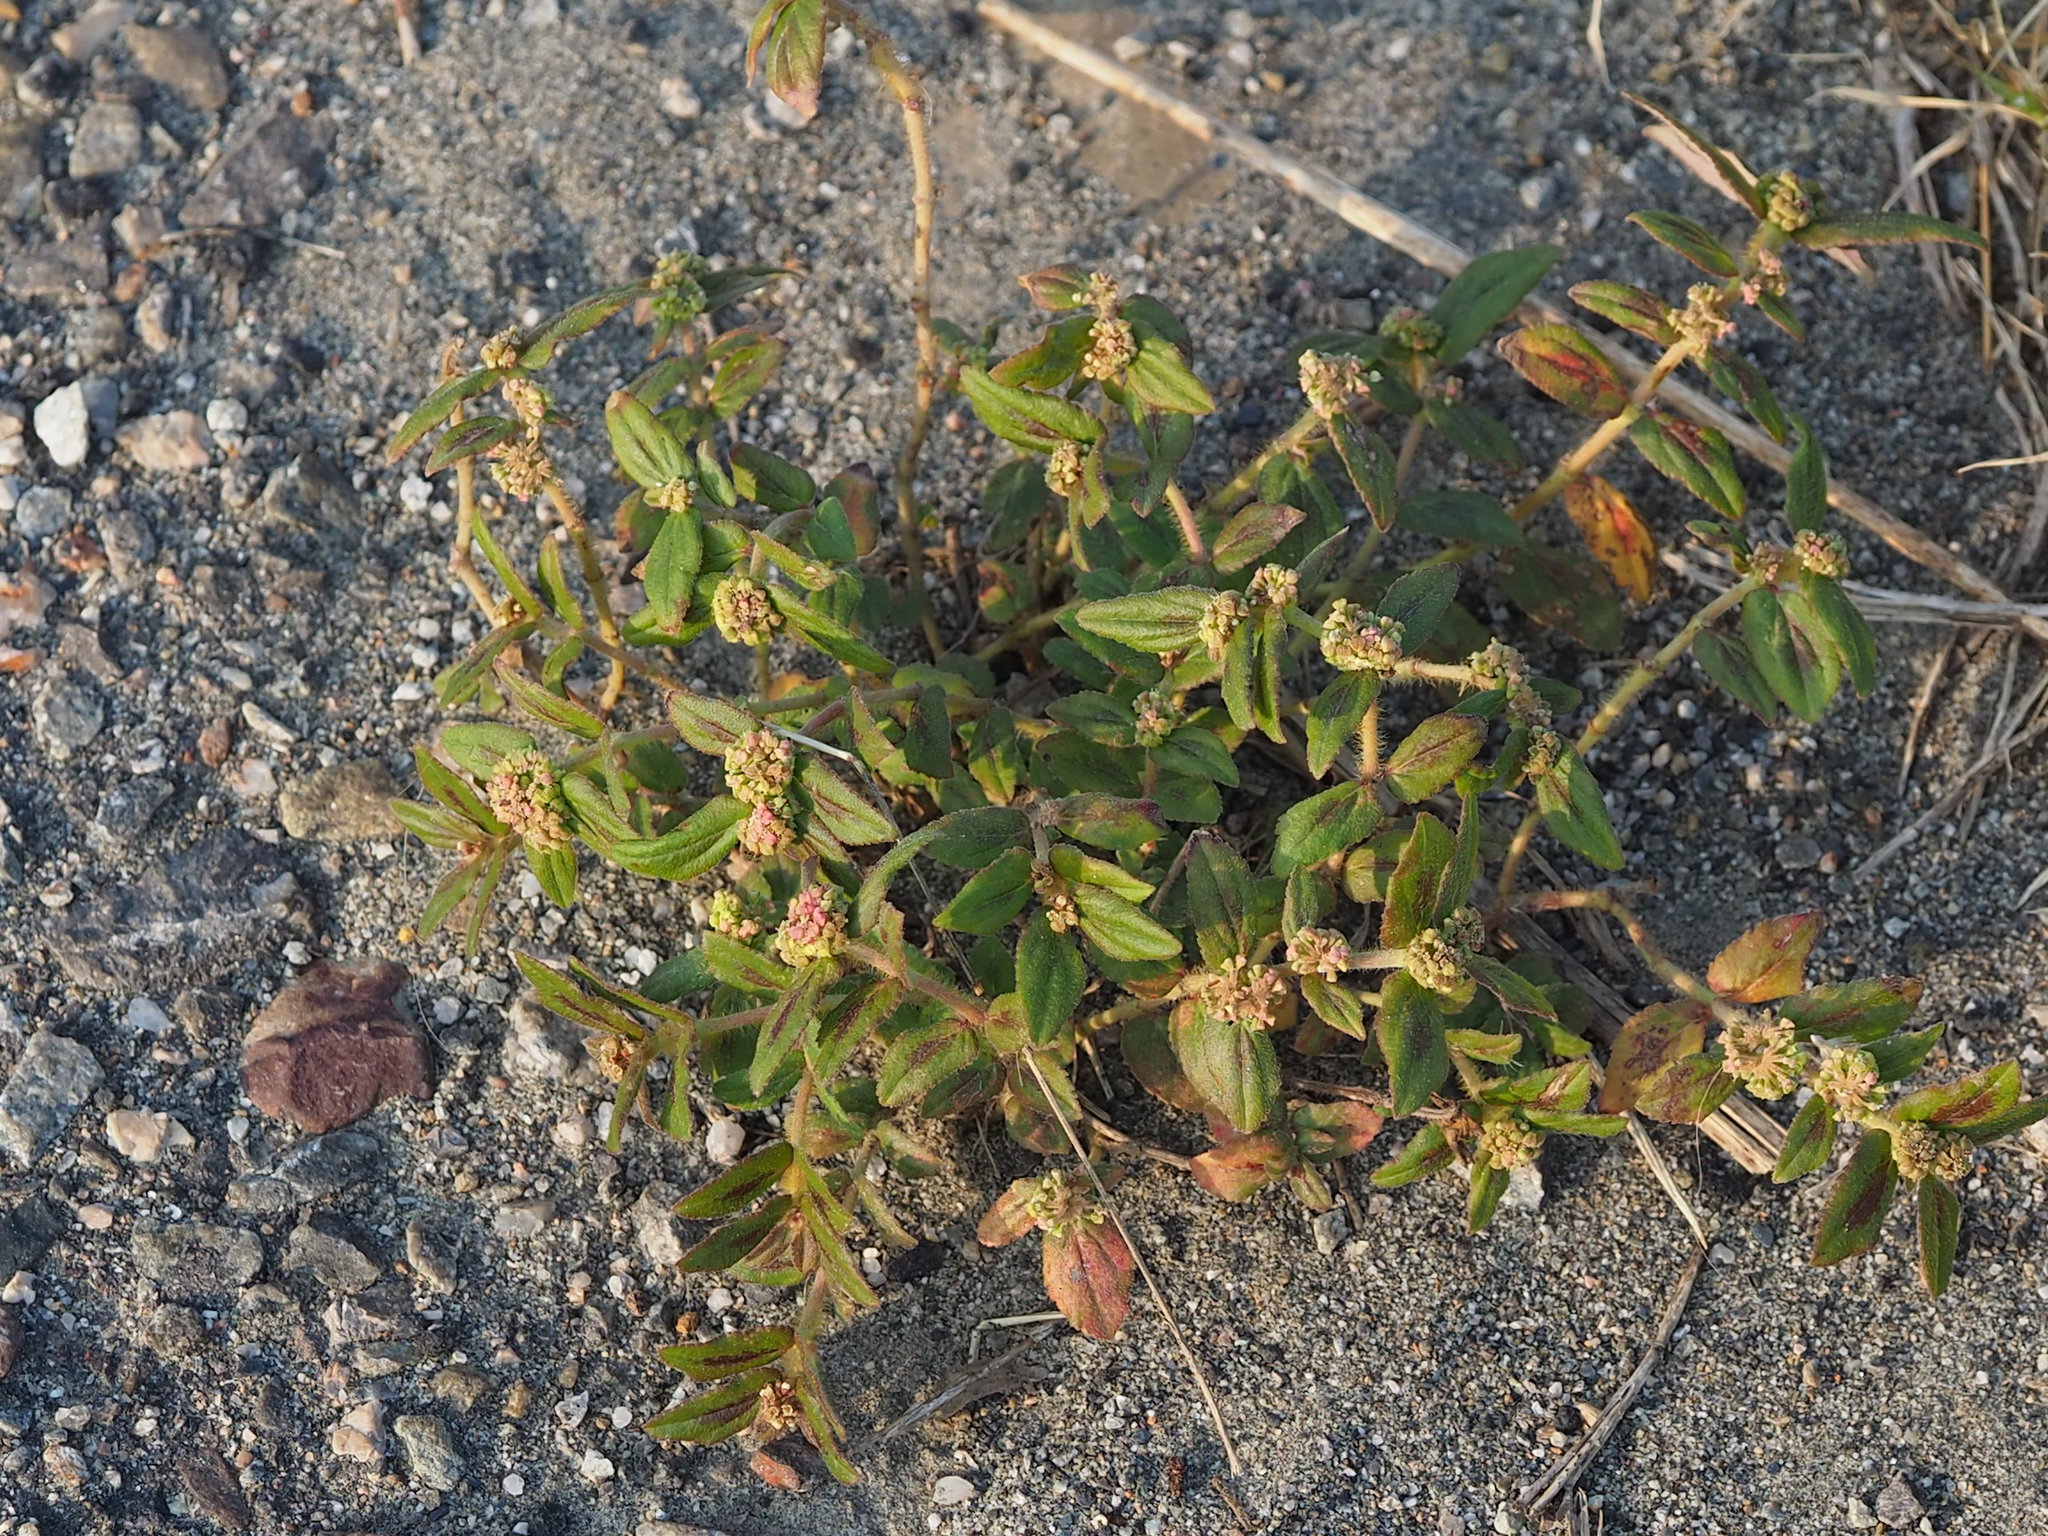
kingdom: Plantae
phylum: Tracheophyta
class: Magnoliopsida
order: Malpighiales
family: Euphorbiaceae
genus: Euphorbia
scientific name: Euphorbia hirta
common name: Pillpod sandmat
